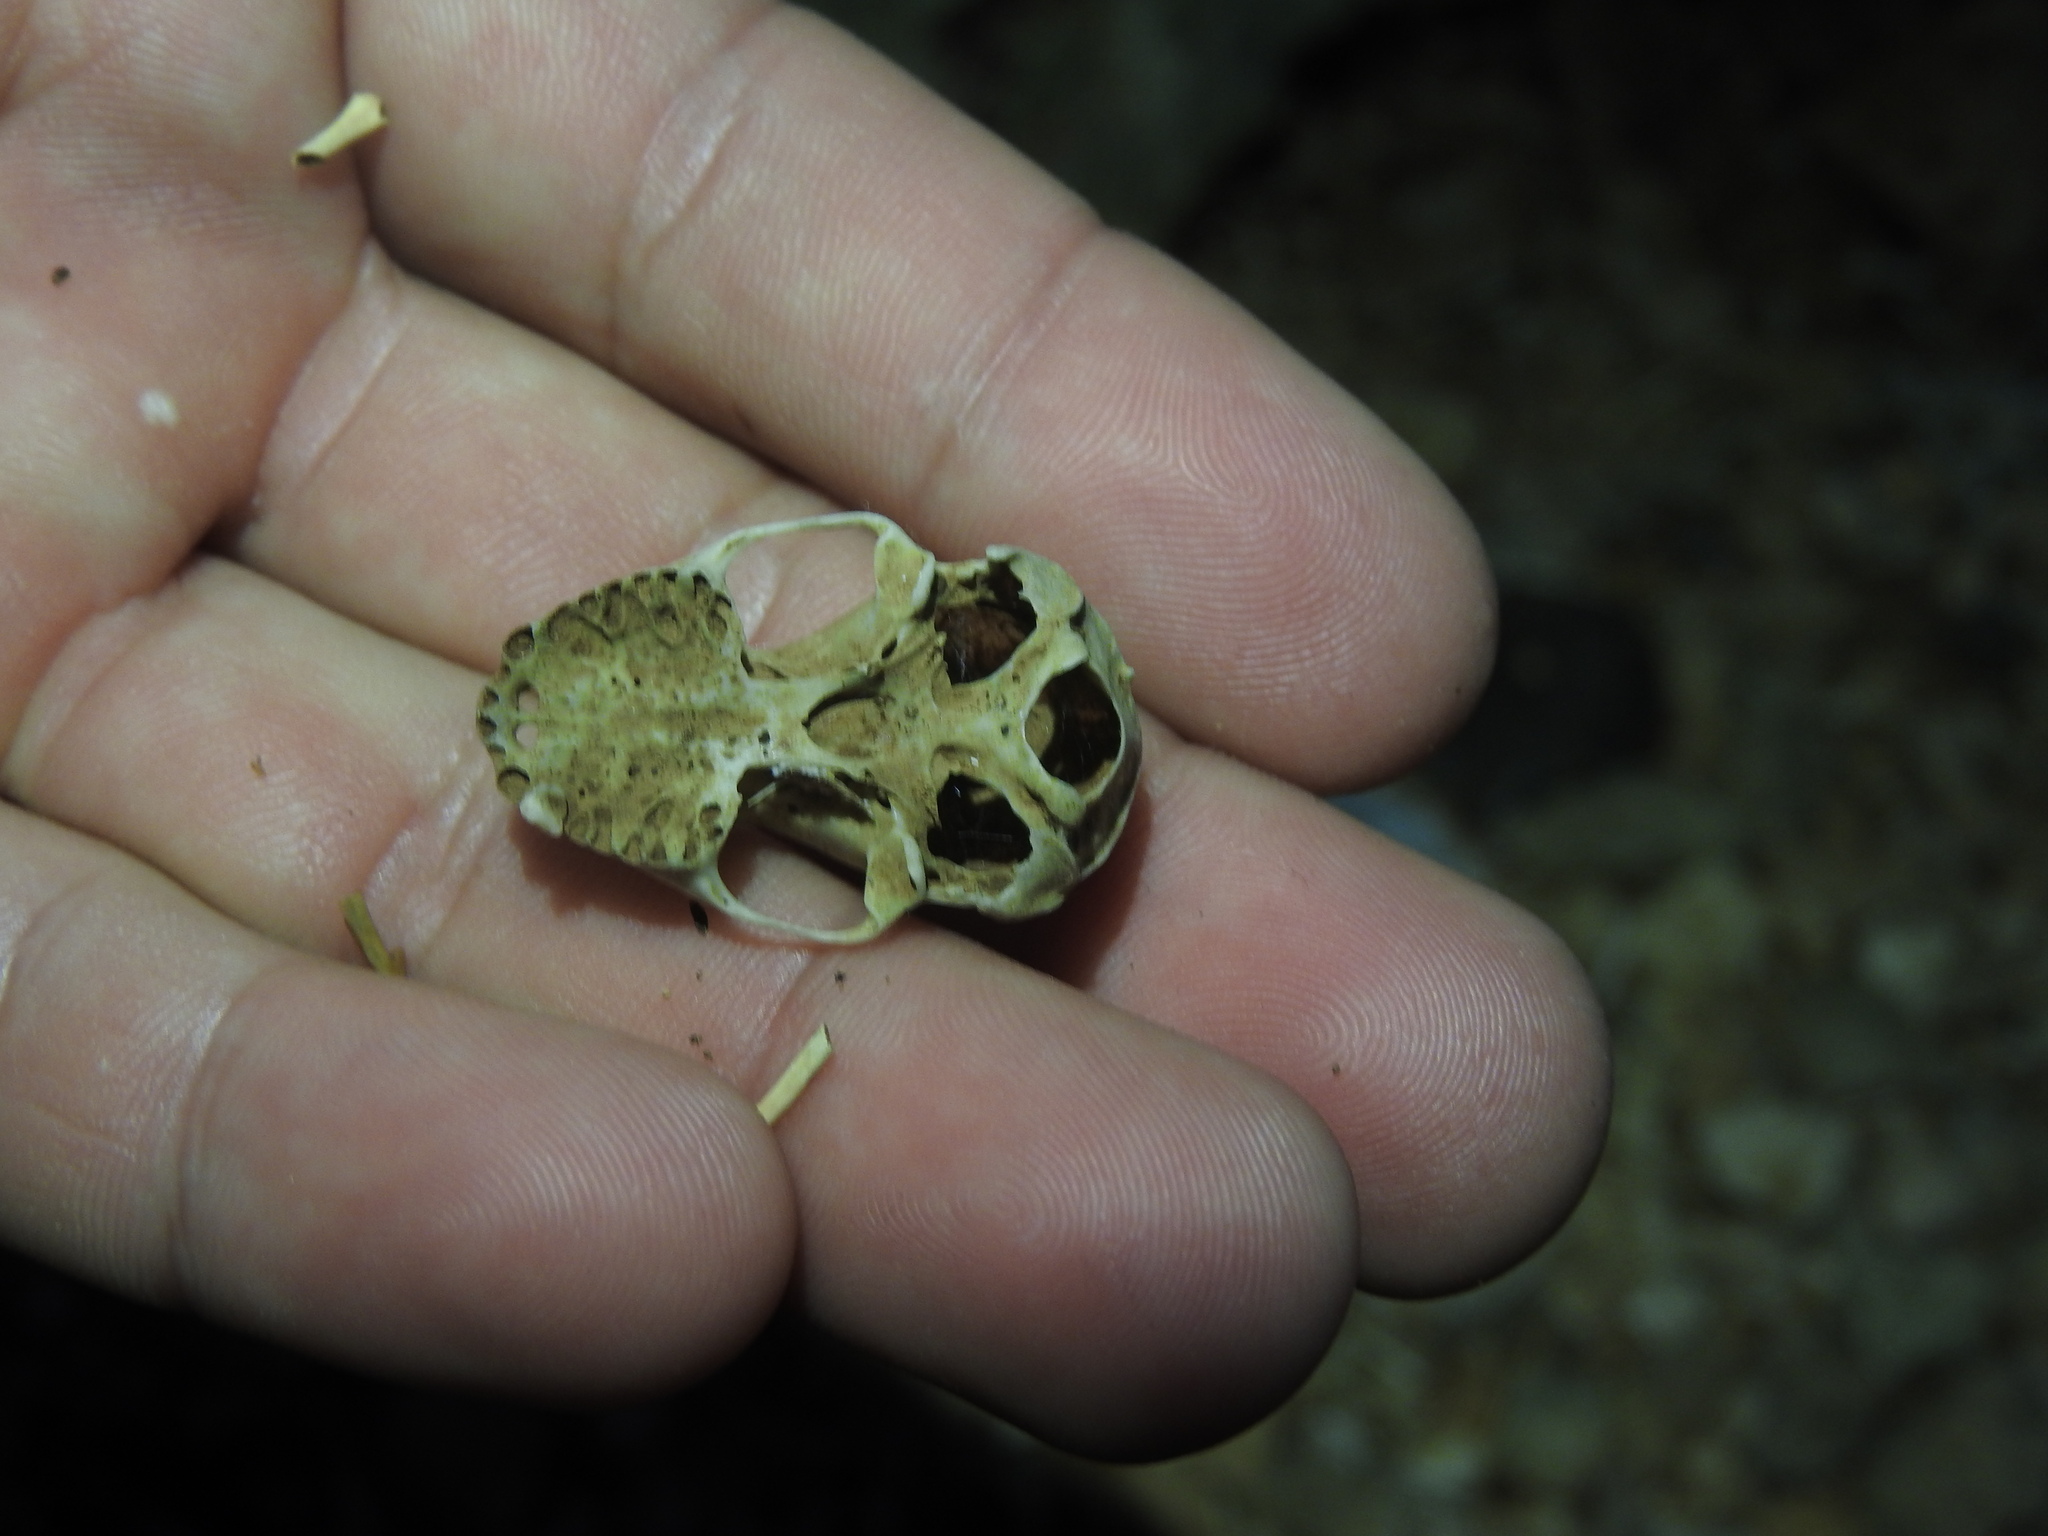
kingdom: Animalia
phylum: Chordata
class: Mammalia
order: Chiroptera
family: Phyllostomidae
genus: Artibeus
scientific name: Artibeus jamaicensis
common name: Jamaican fruit-eating bat
